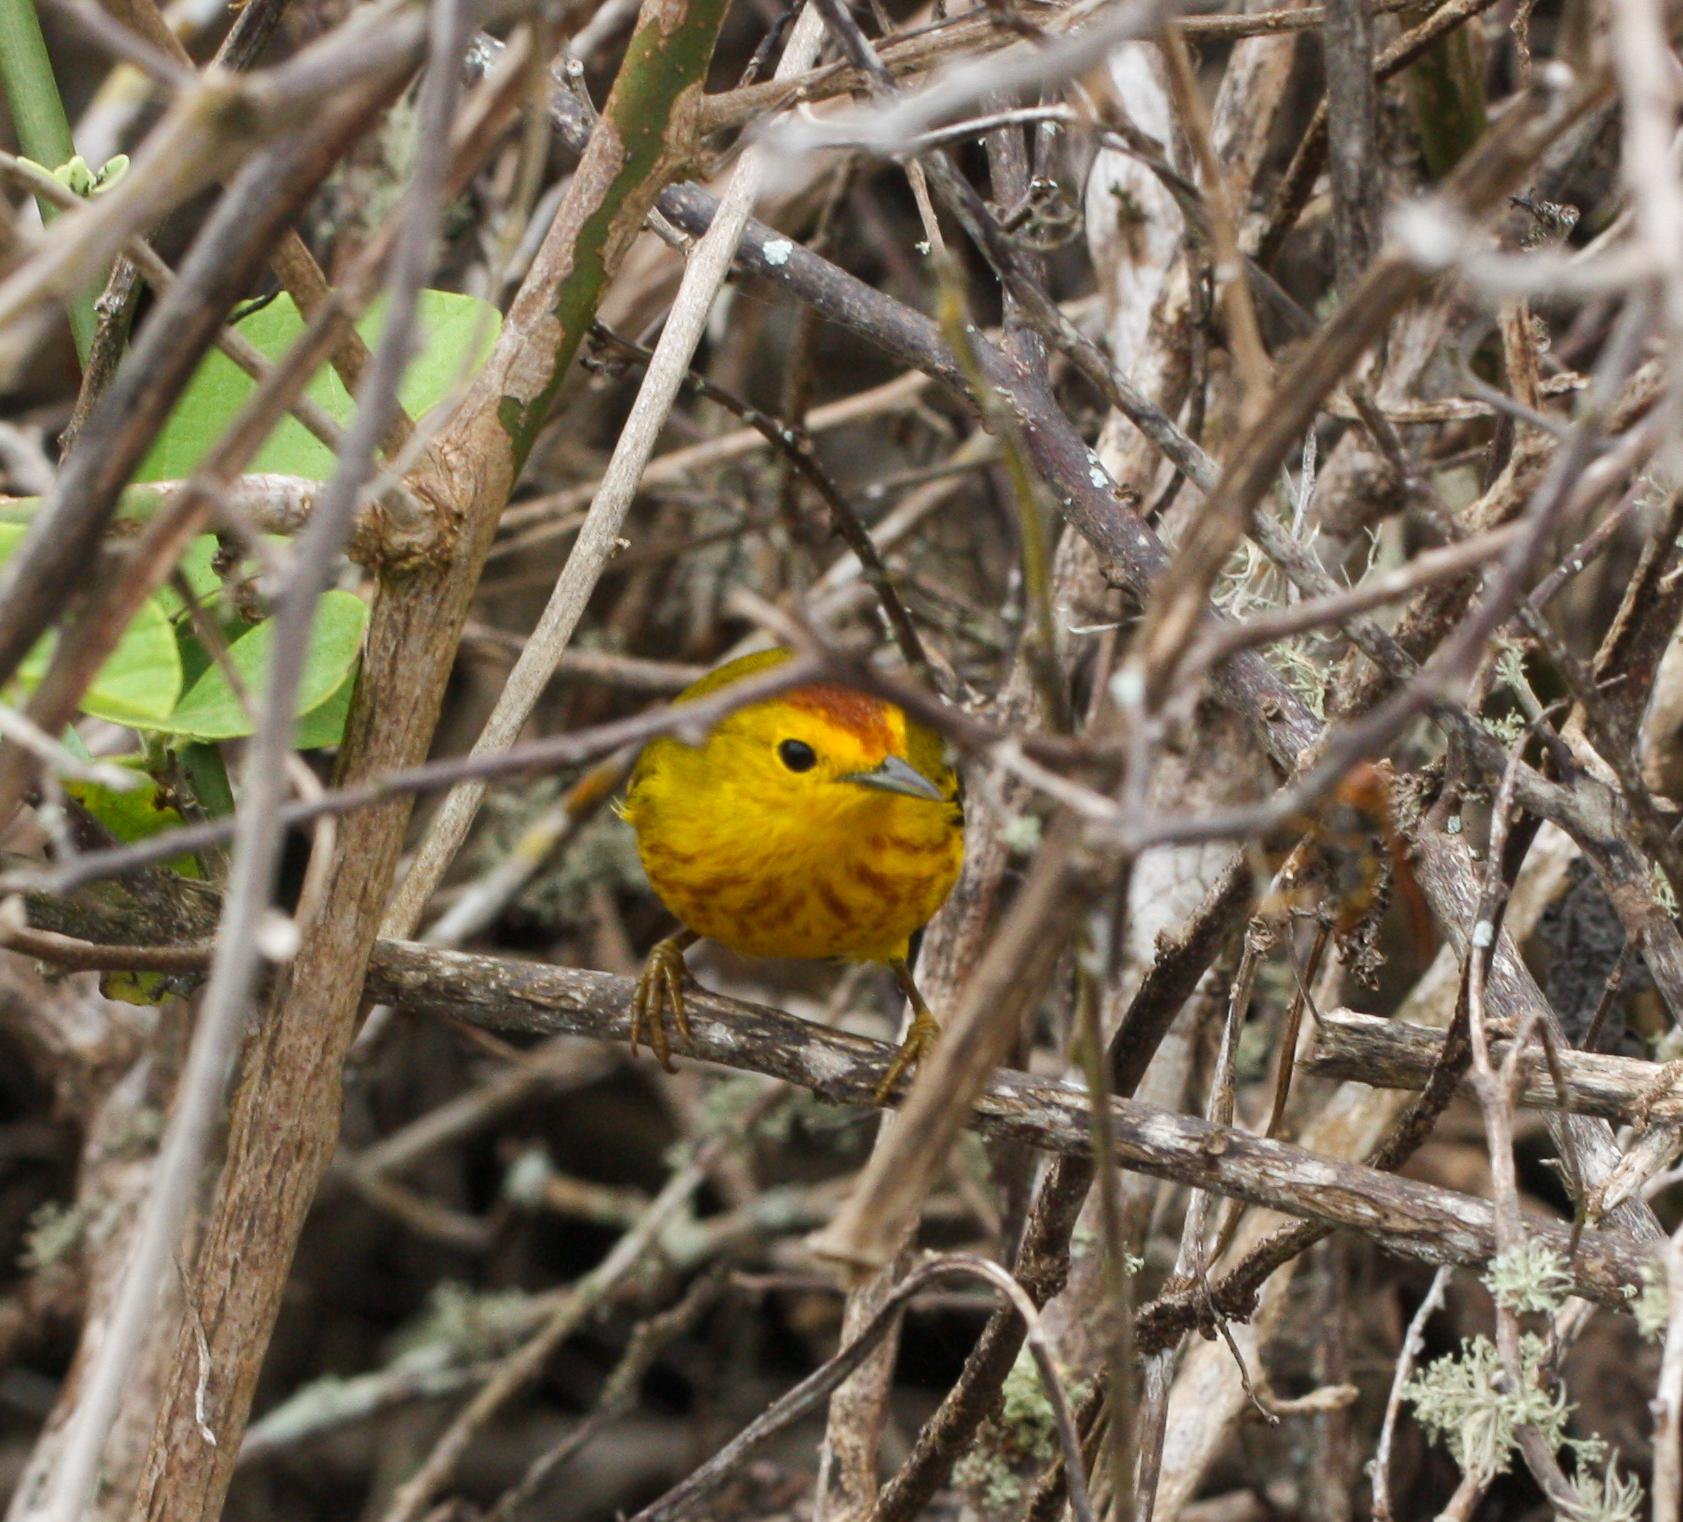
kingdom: Animalia
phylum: Chordata
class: Aves
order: Passeriformes
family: Parulidae
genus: Setophaga
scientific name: Setophaga petechia
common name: Yellow warbler
